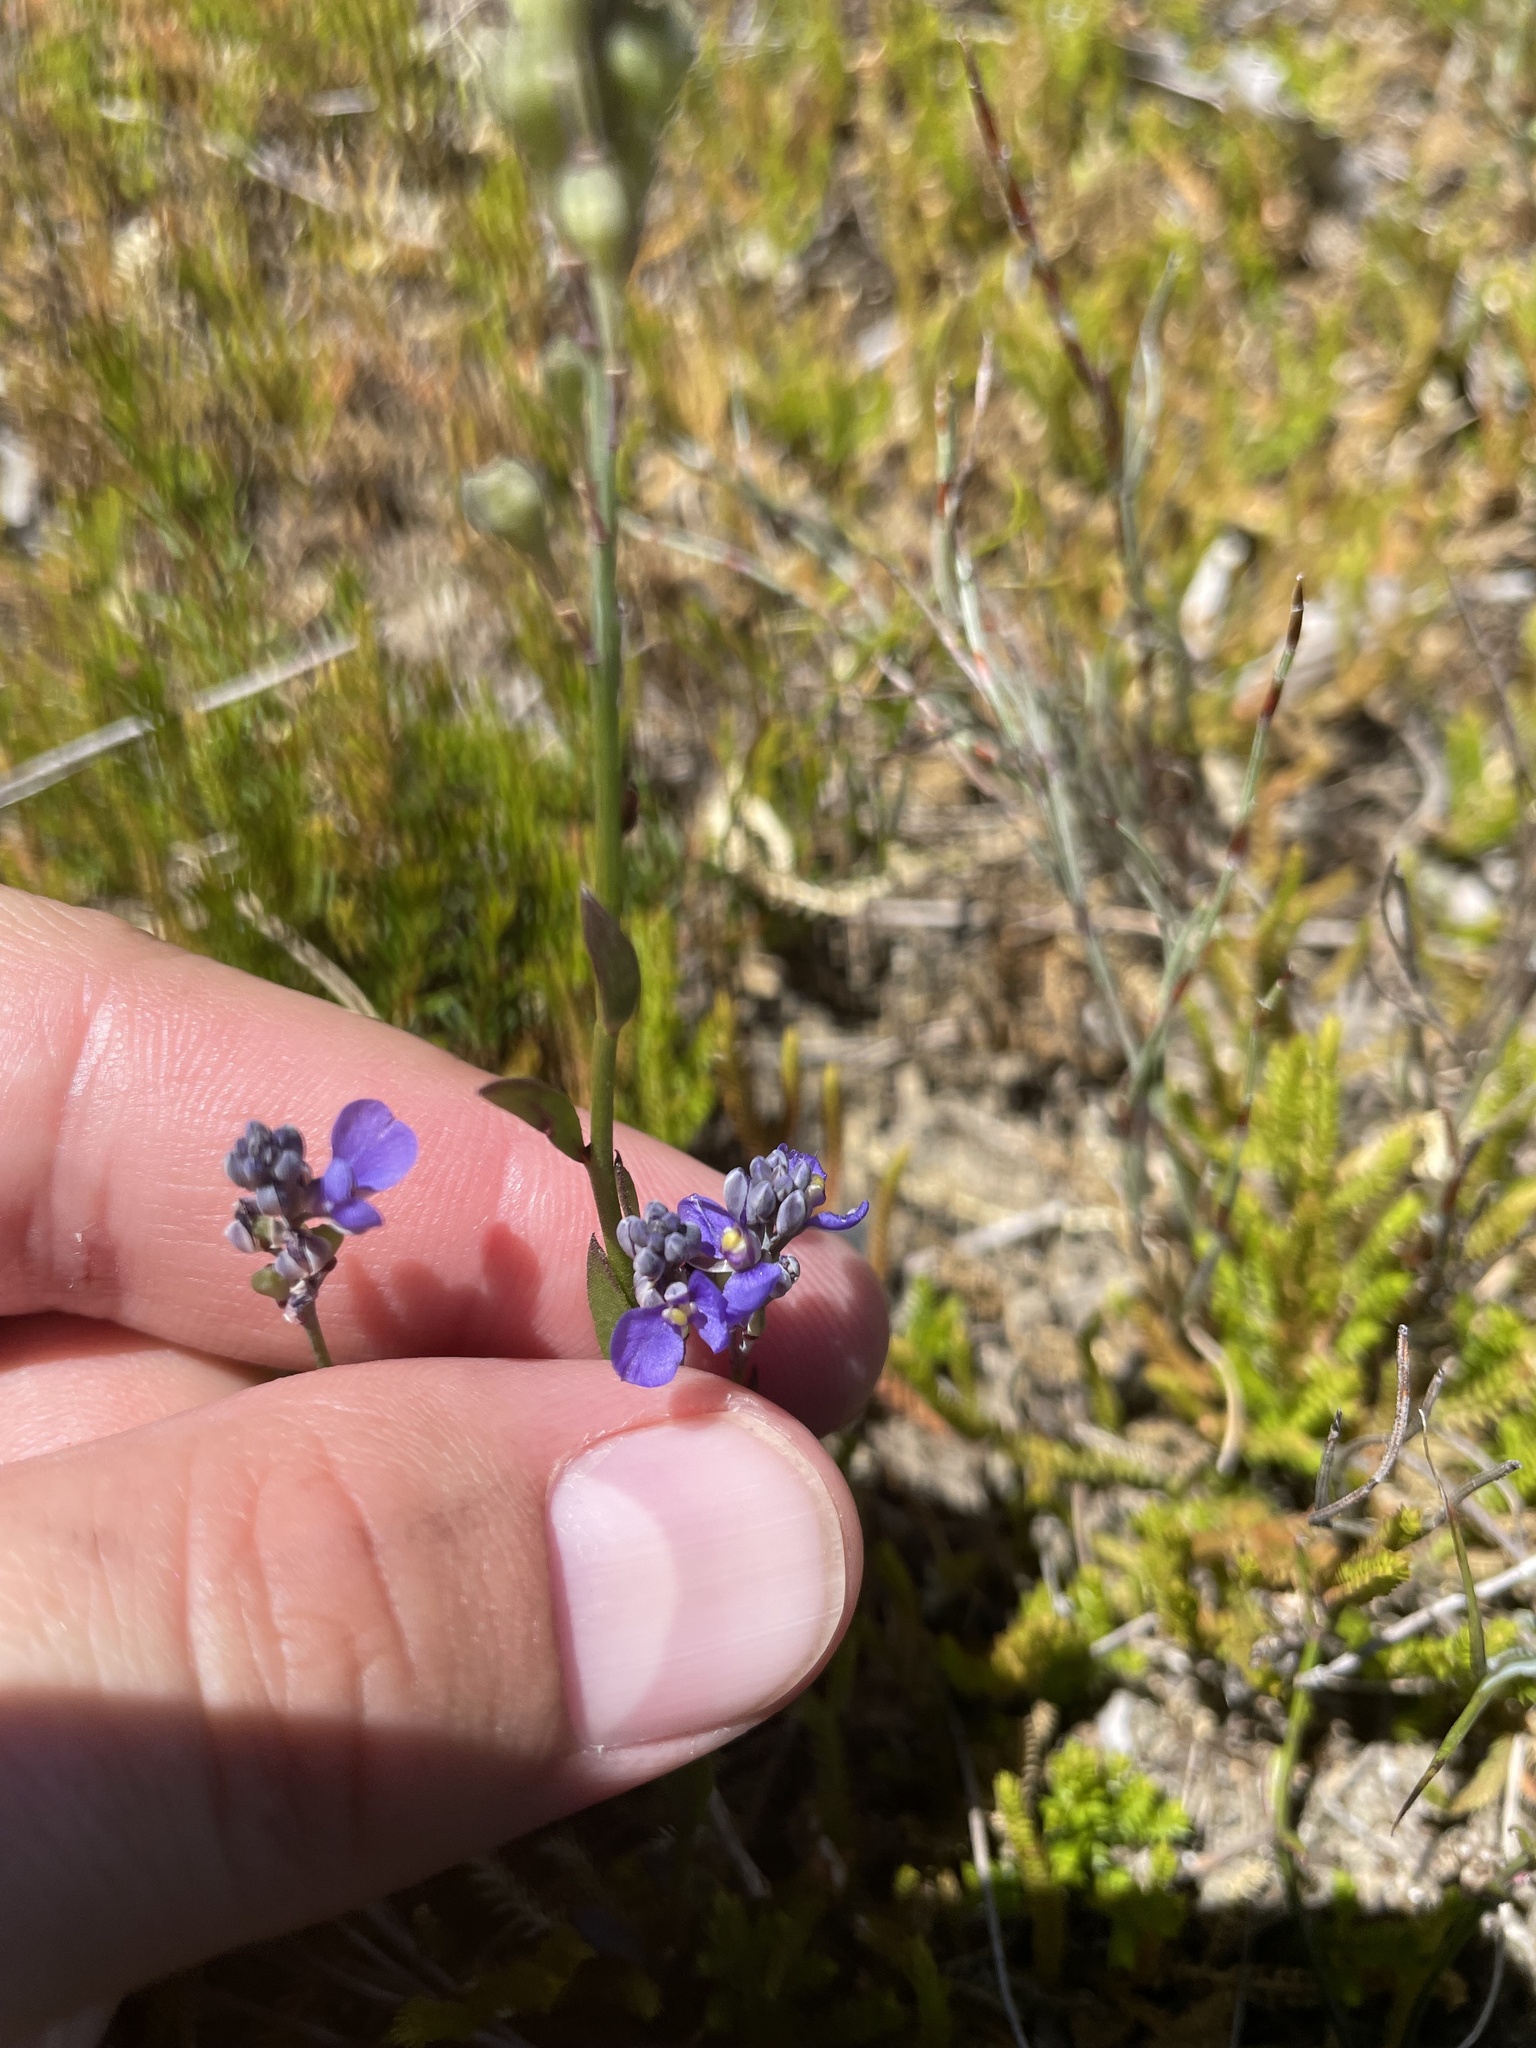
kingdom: Plantae
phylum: Tracheophyta
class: Magnoliopsida
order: Fabales
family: Polygalaceae
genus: Comesperma
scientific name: Comesperma calymega
